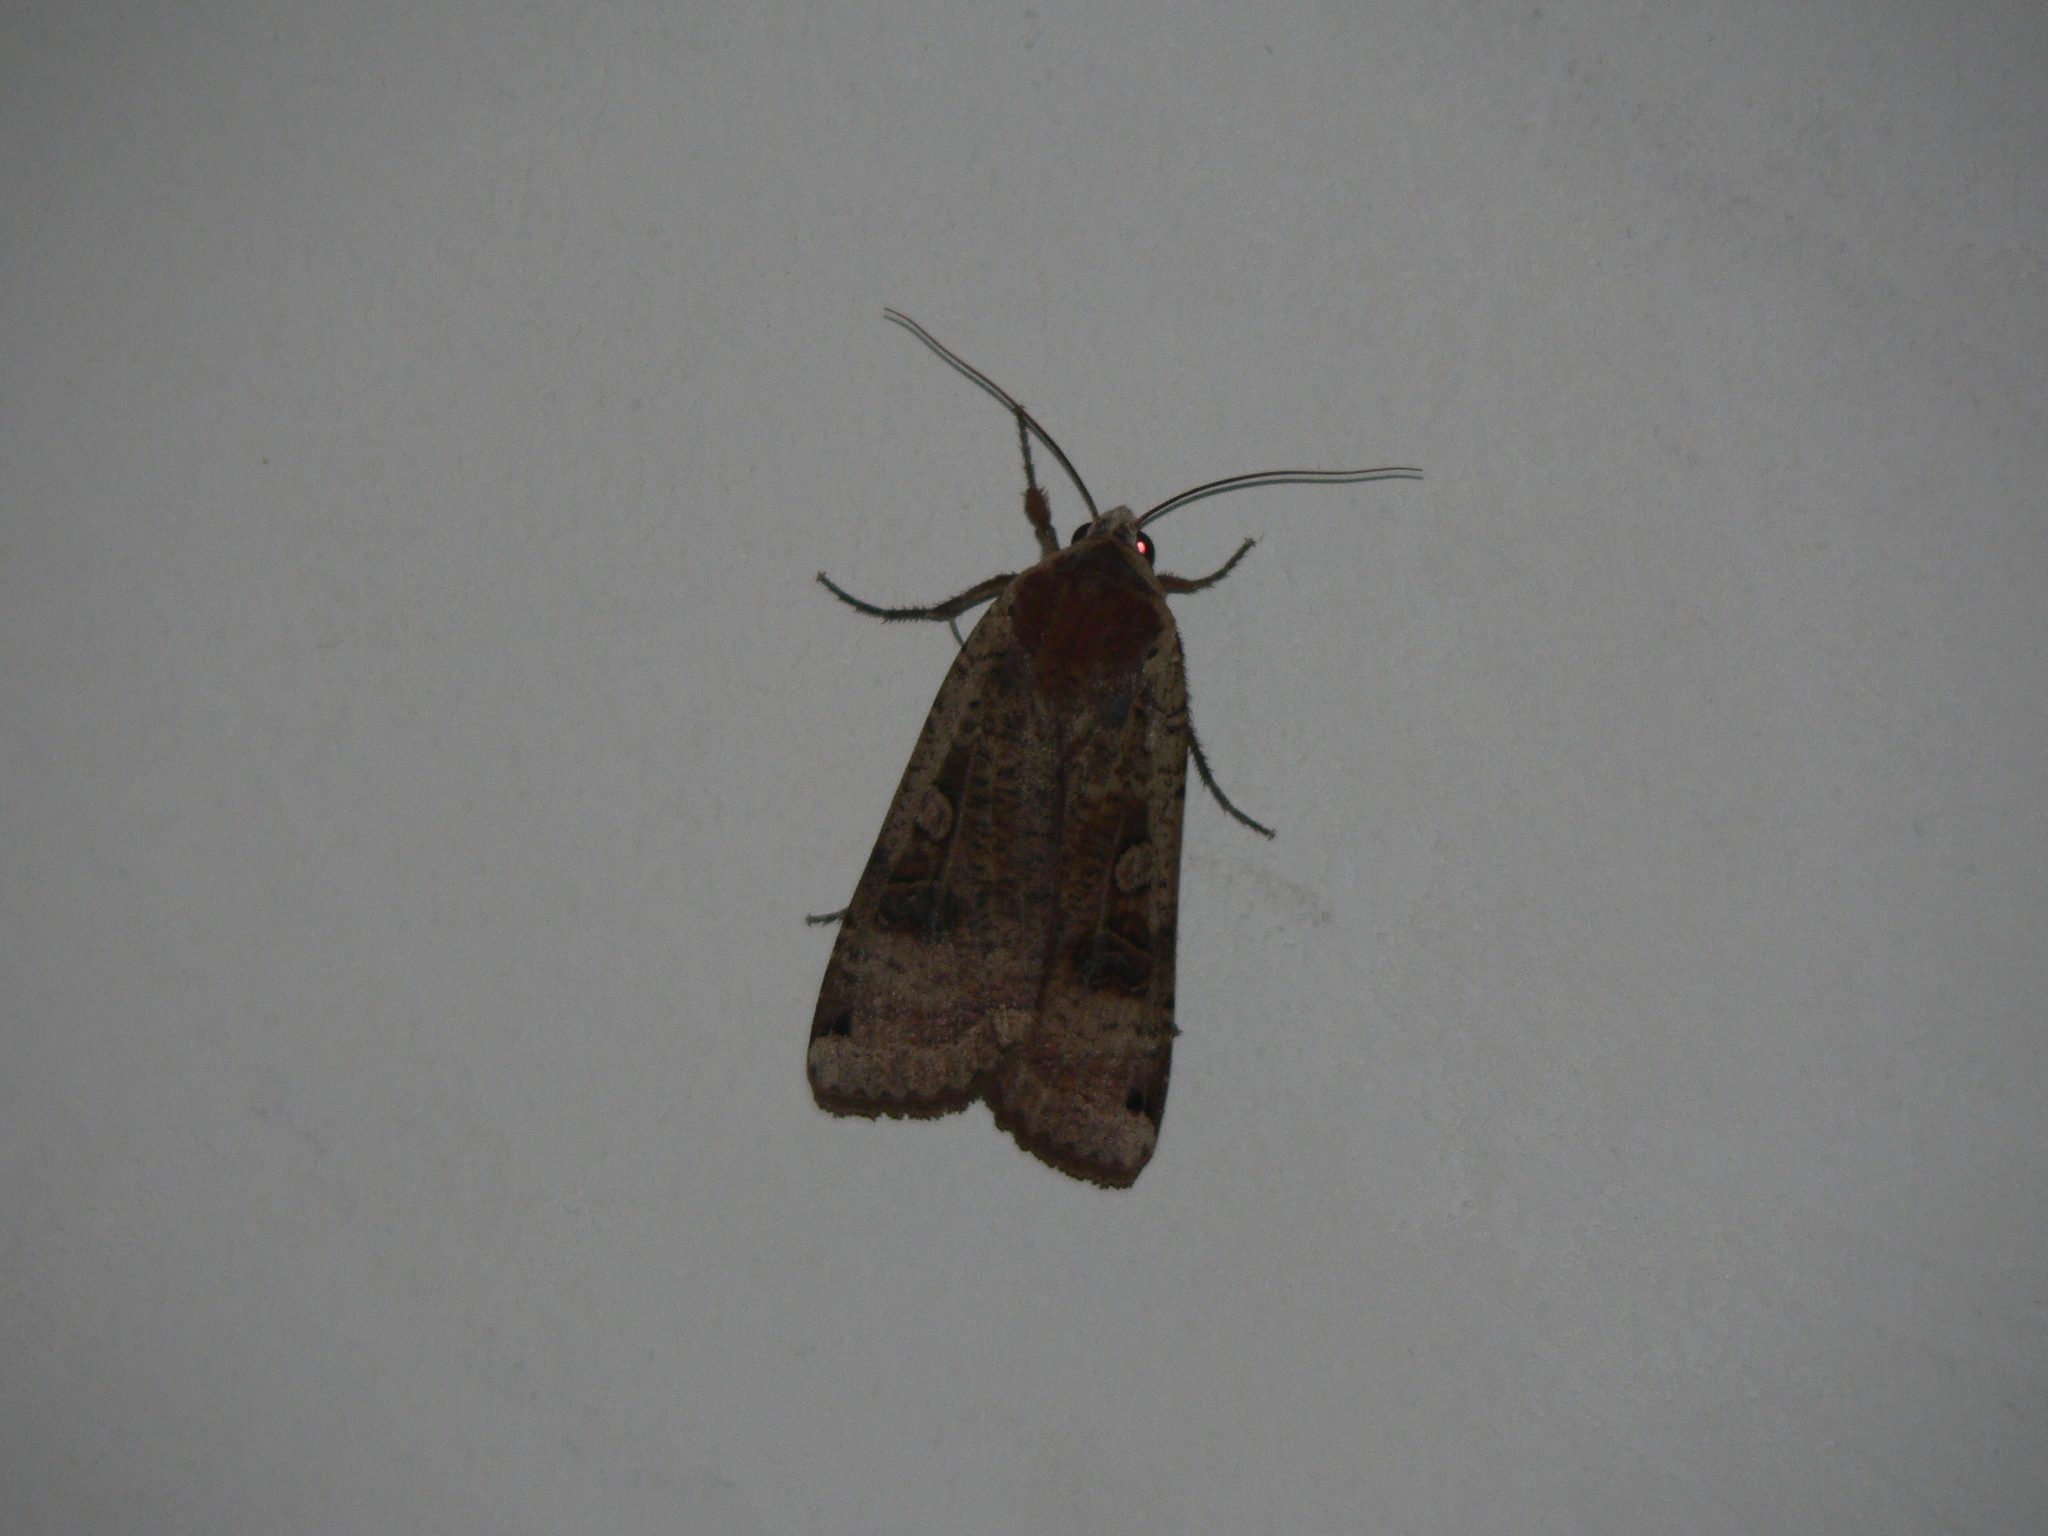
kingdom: Animalia
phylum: Arthropoda
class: Insecta
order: Lepidoptera
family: Noctuidae
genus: Noctua
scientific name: Noctua pronuba
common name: Large yellow underwing
